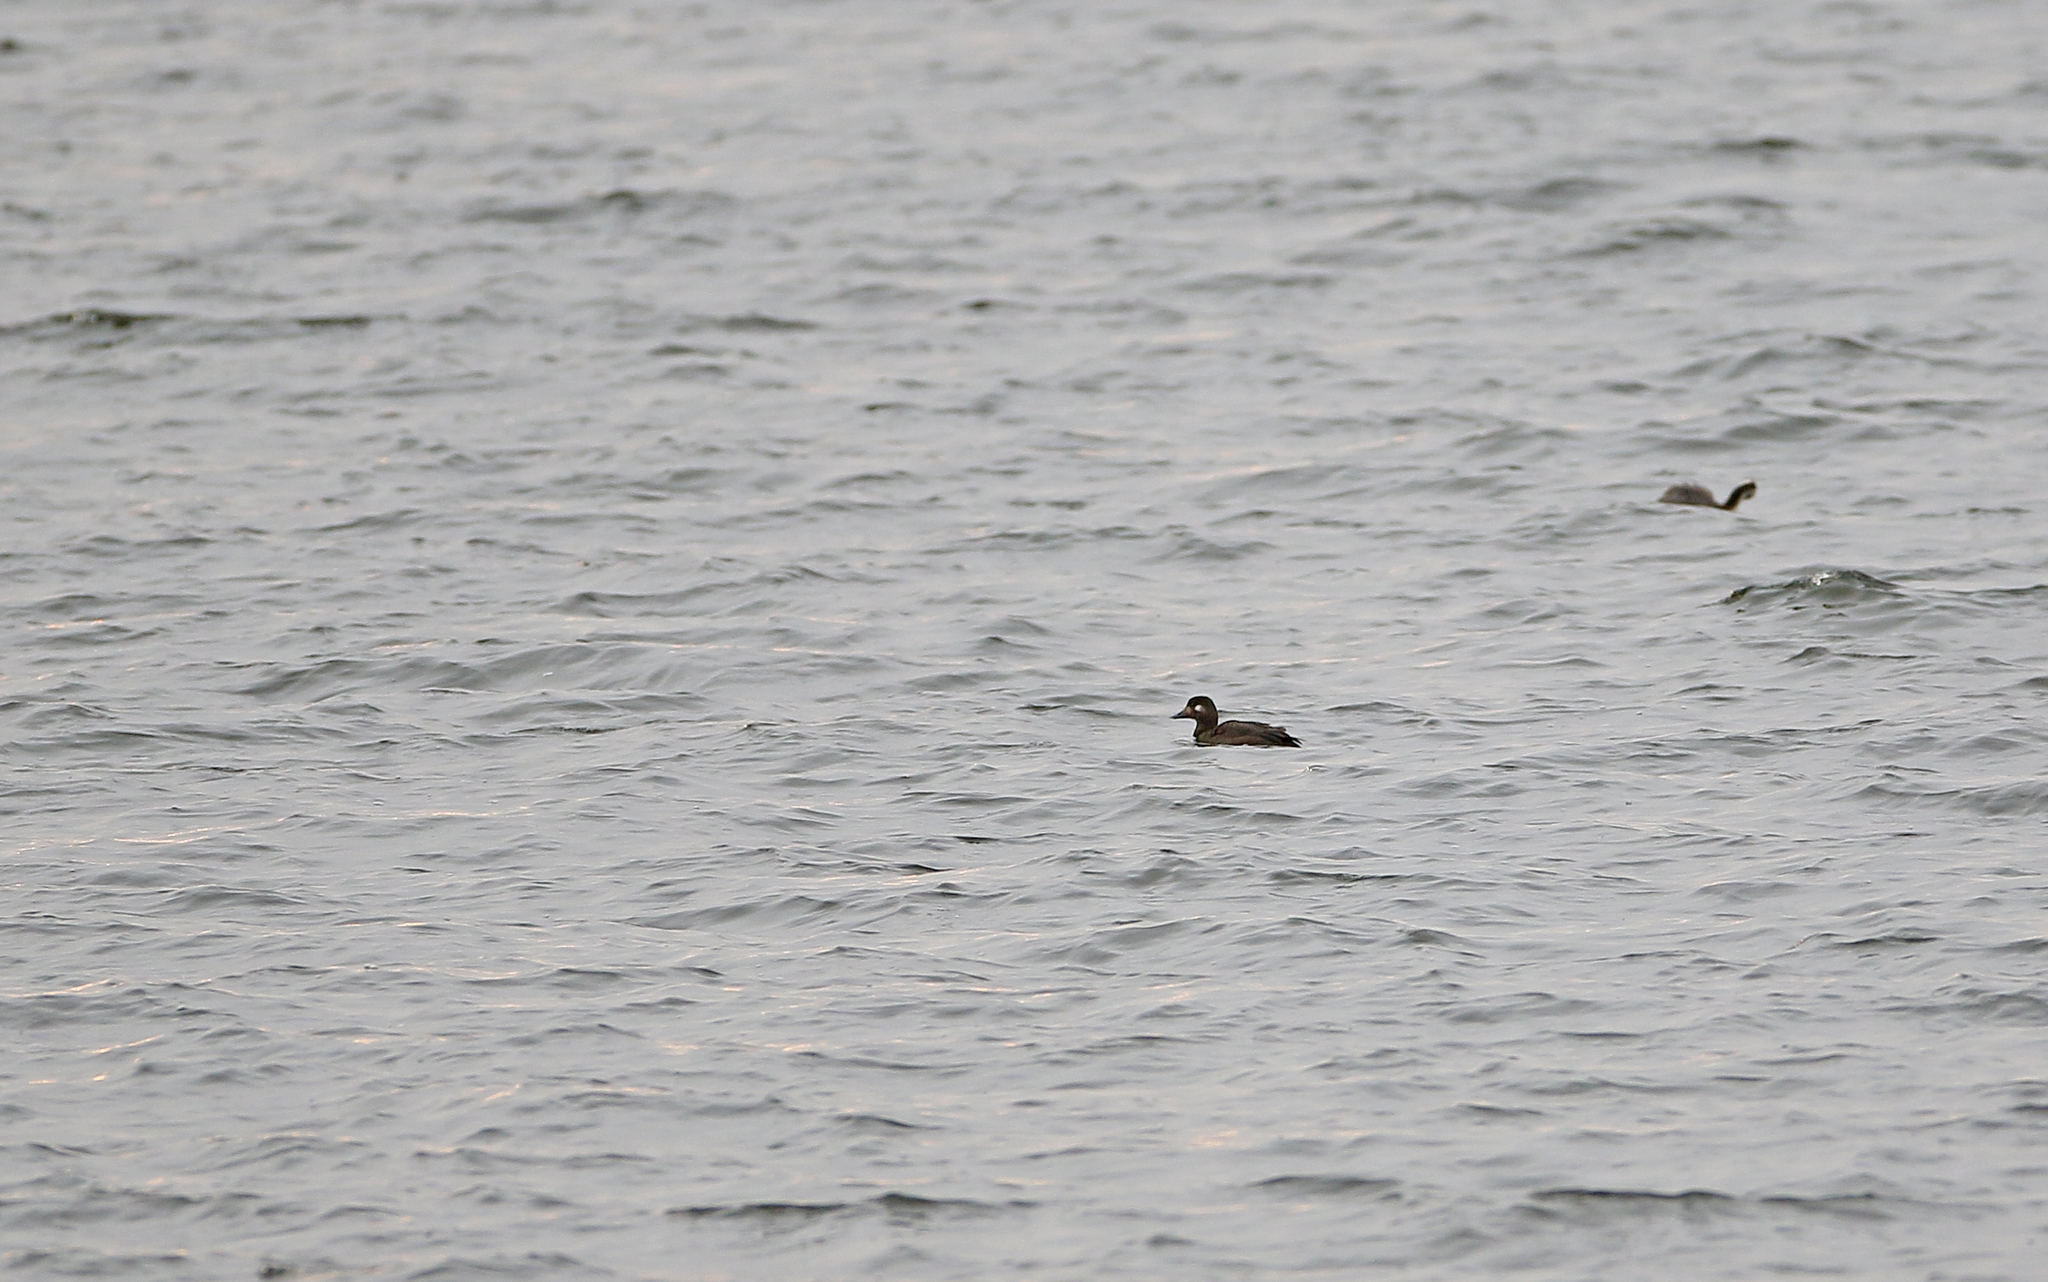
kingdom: Animalia
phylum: Chordata
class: Aves
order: Anseriformes
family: Anatidae
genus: Melanitta
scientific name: Melanitta fusca
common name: Velvet scoter
